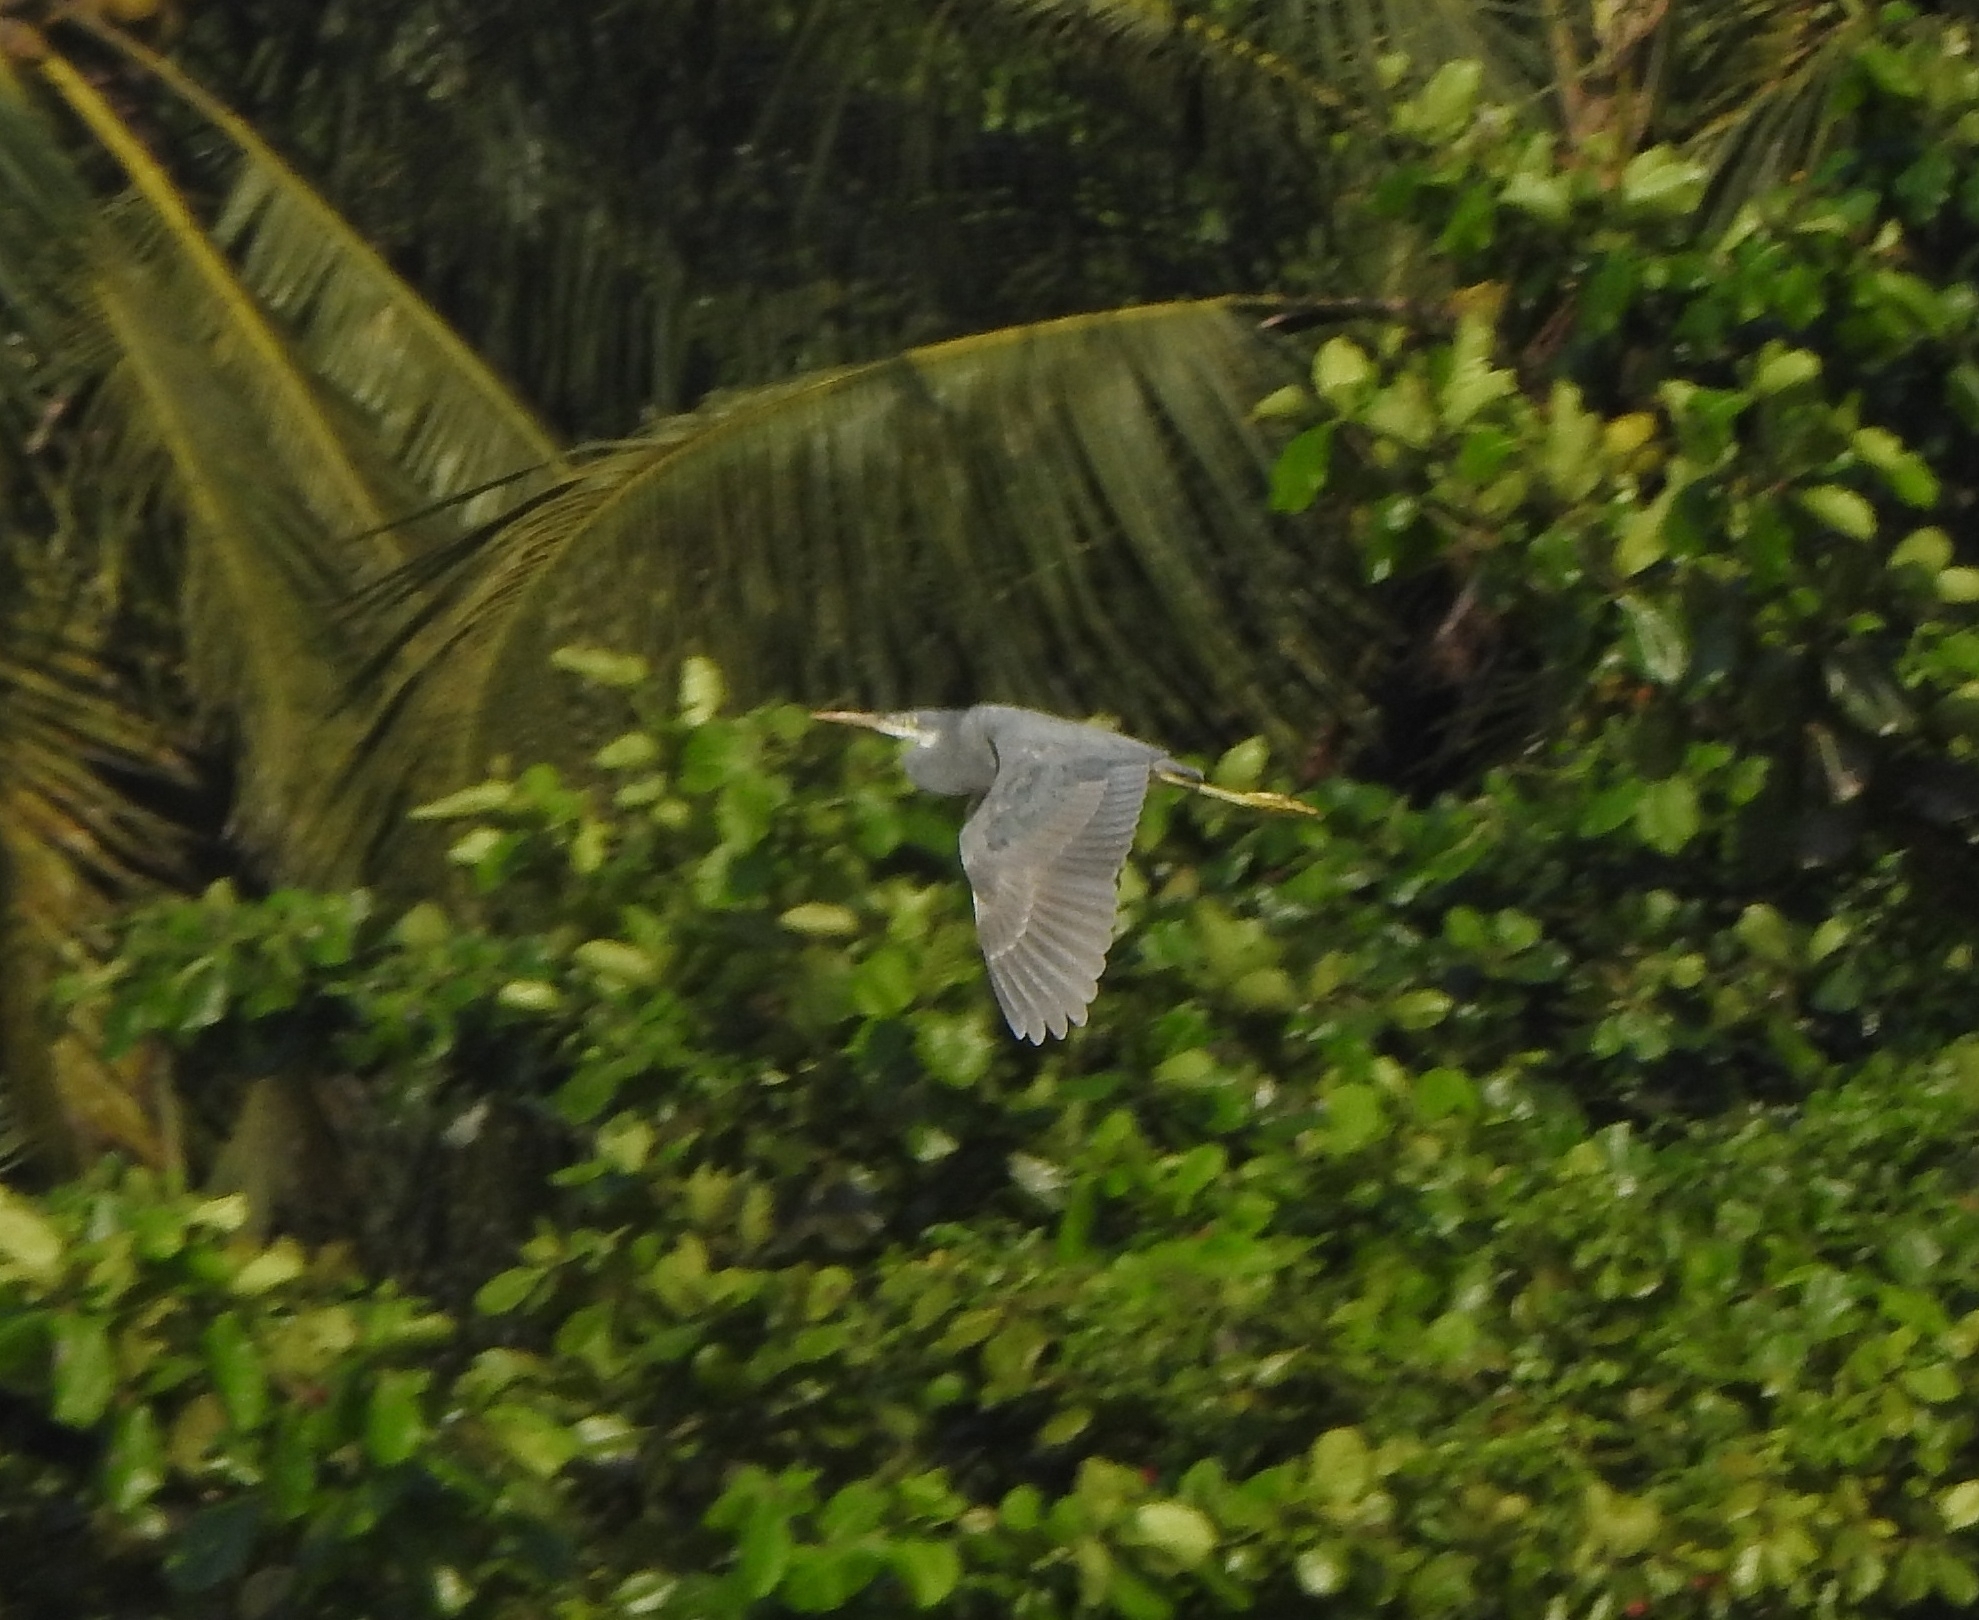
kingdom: Animalia
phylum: Chordata
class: Aves
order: Pelecaniformes
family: Ardeidae
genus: Egretta
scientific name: Egretta gularis
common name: Western reef-heron
